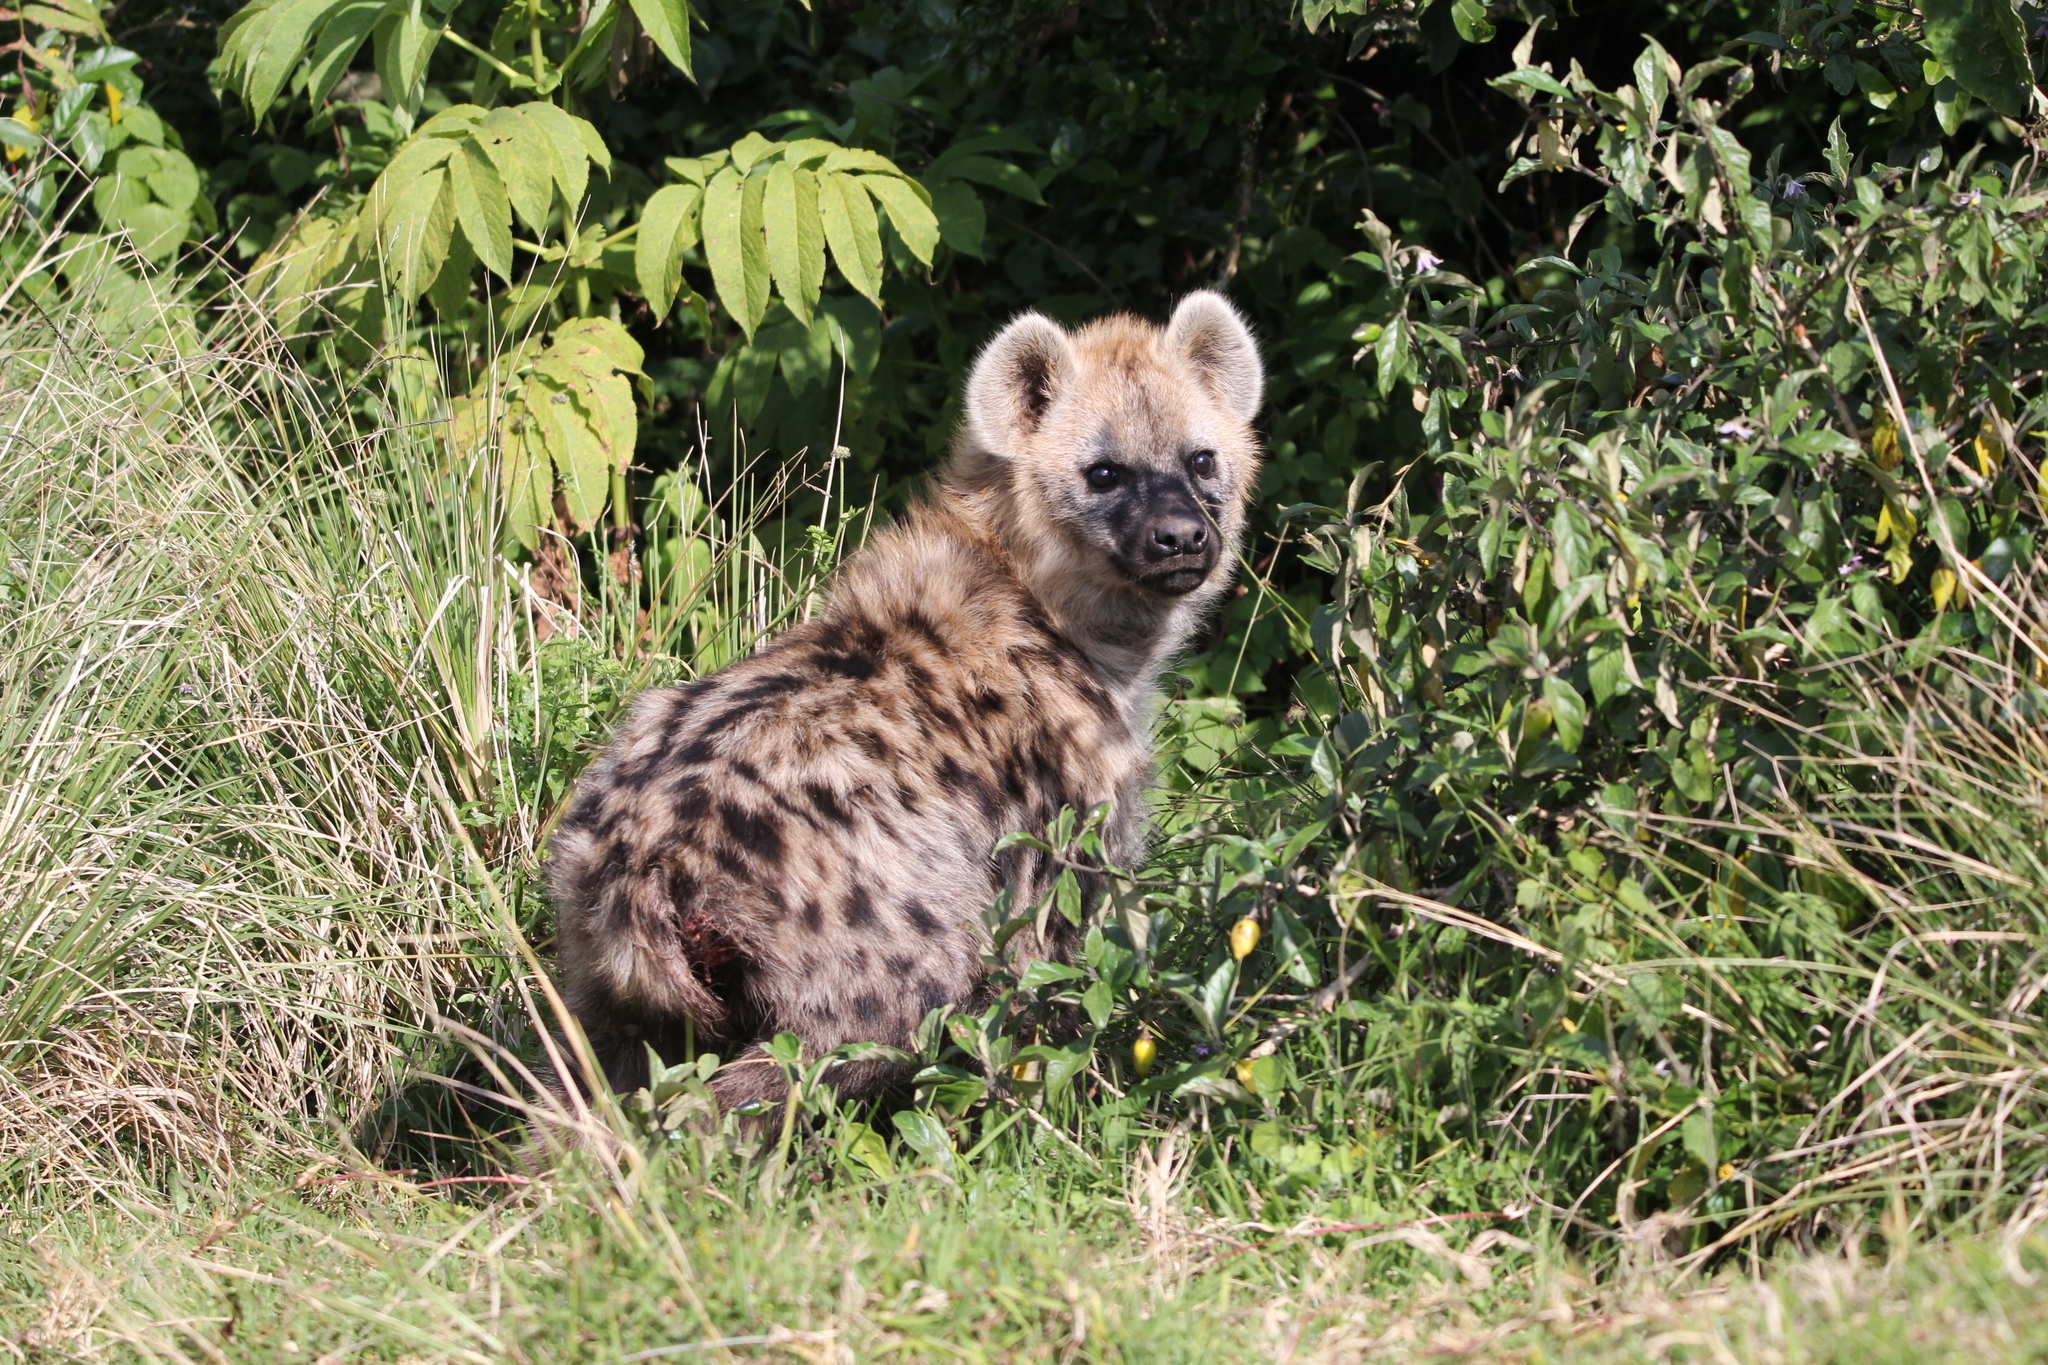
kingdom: Animalia
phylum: Chordata
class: Mammalia
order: Carnivora
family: Hyaenidae
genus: Crocuta
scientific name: Crocuta crocuta
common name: Spotted hyaena
